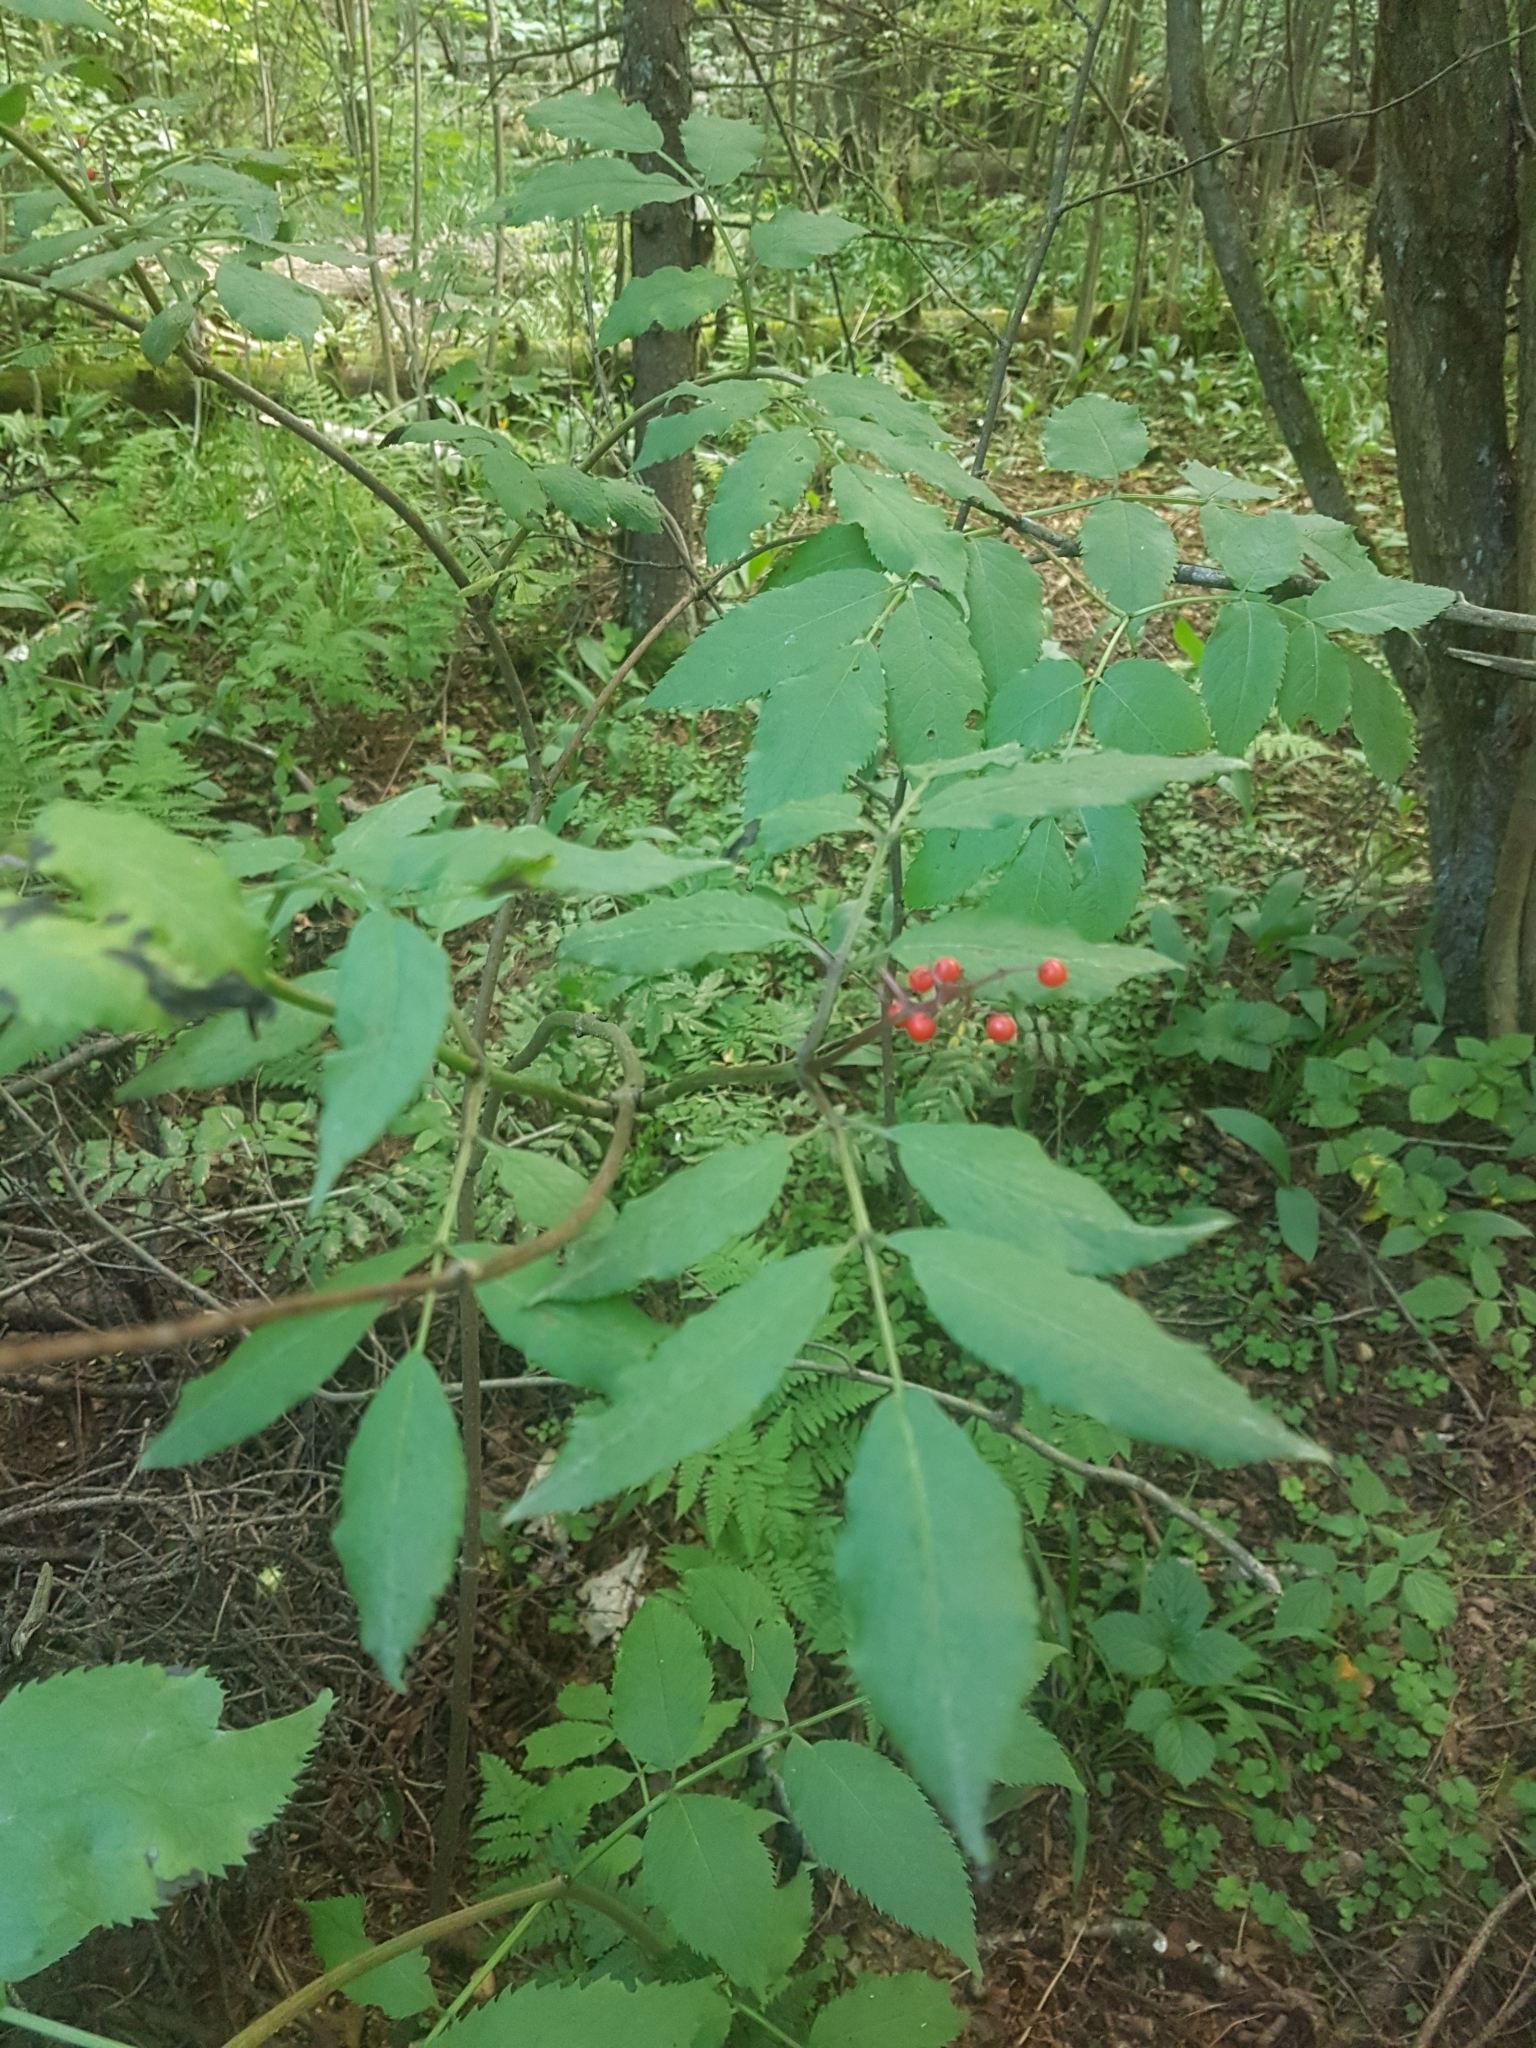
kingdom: Plantae
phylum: Tracheophyta
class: Magnoliopsida
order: Dipsacales
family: Viburnaceae
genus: Sambucus
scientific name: Sambucus racemosa
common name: Red-berried elder
